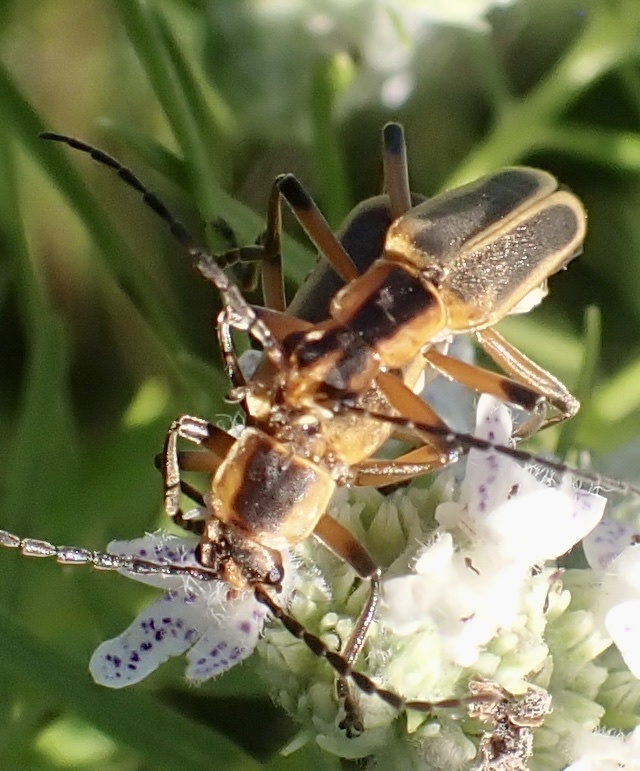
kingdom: Animalia
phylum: Arthropoda
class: Insecta
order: Coleoptera
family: Cantharidae
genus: Chauliognathus
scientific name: Chauliognathus marginatus
